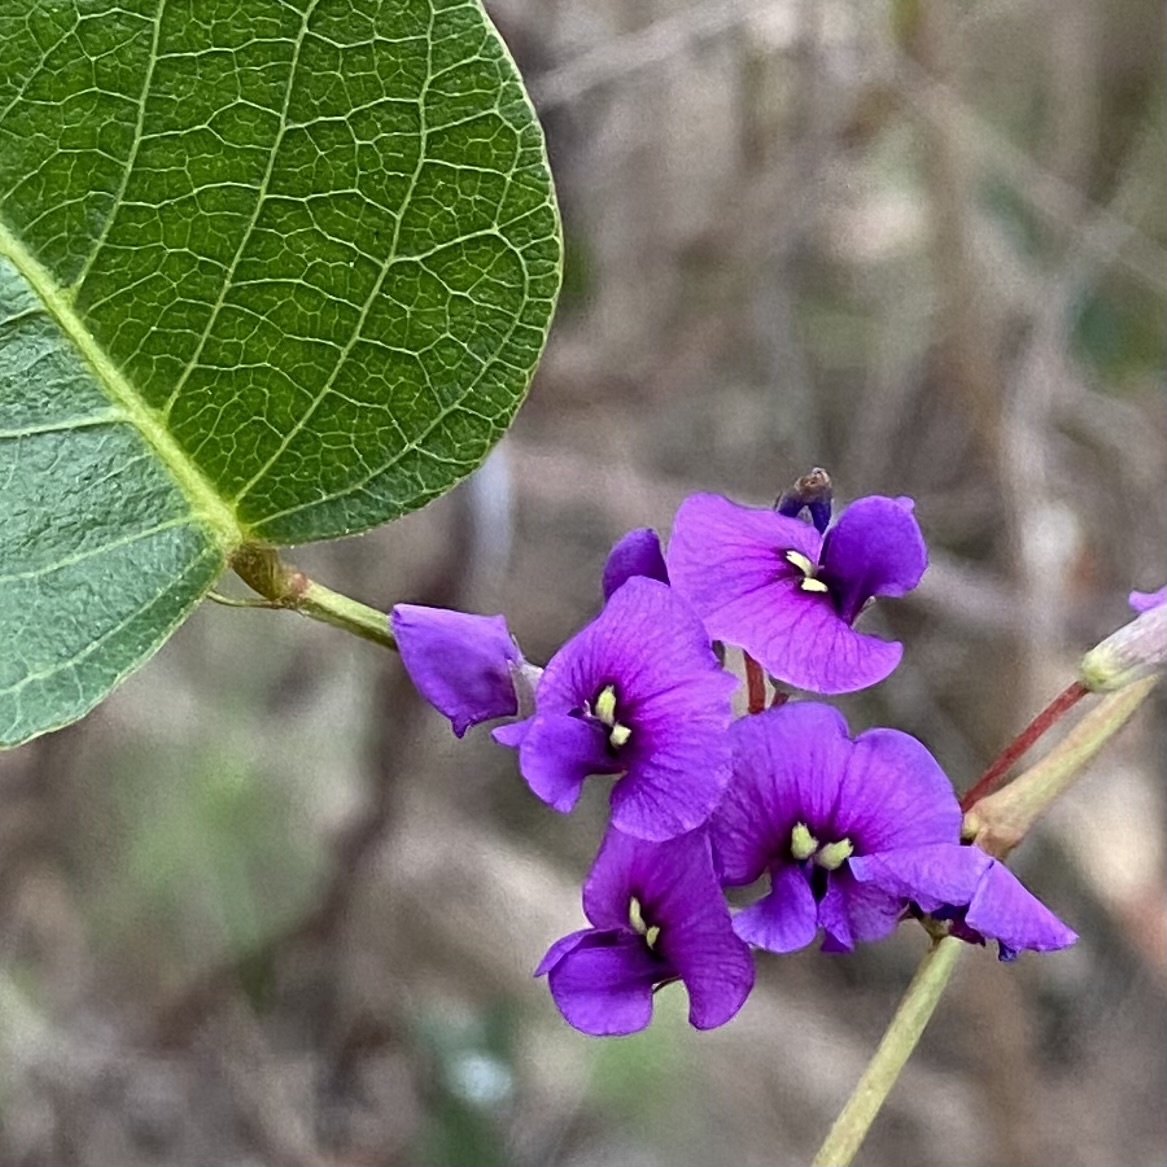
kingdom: Plantae
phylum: Tracheophyta
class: Magnoliopsida
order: Fabales
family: Fabaceae
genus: Hardenbergia
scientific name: Hardenbergia violacea
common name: Coral-pea
